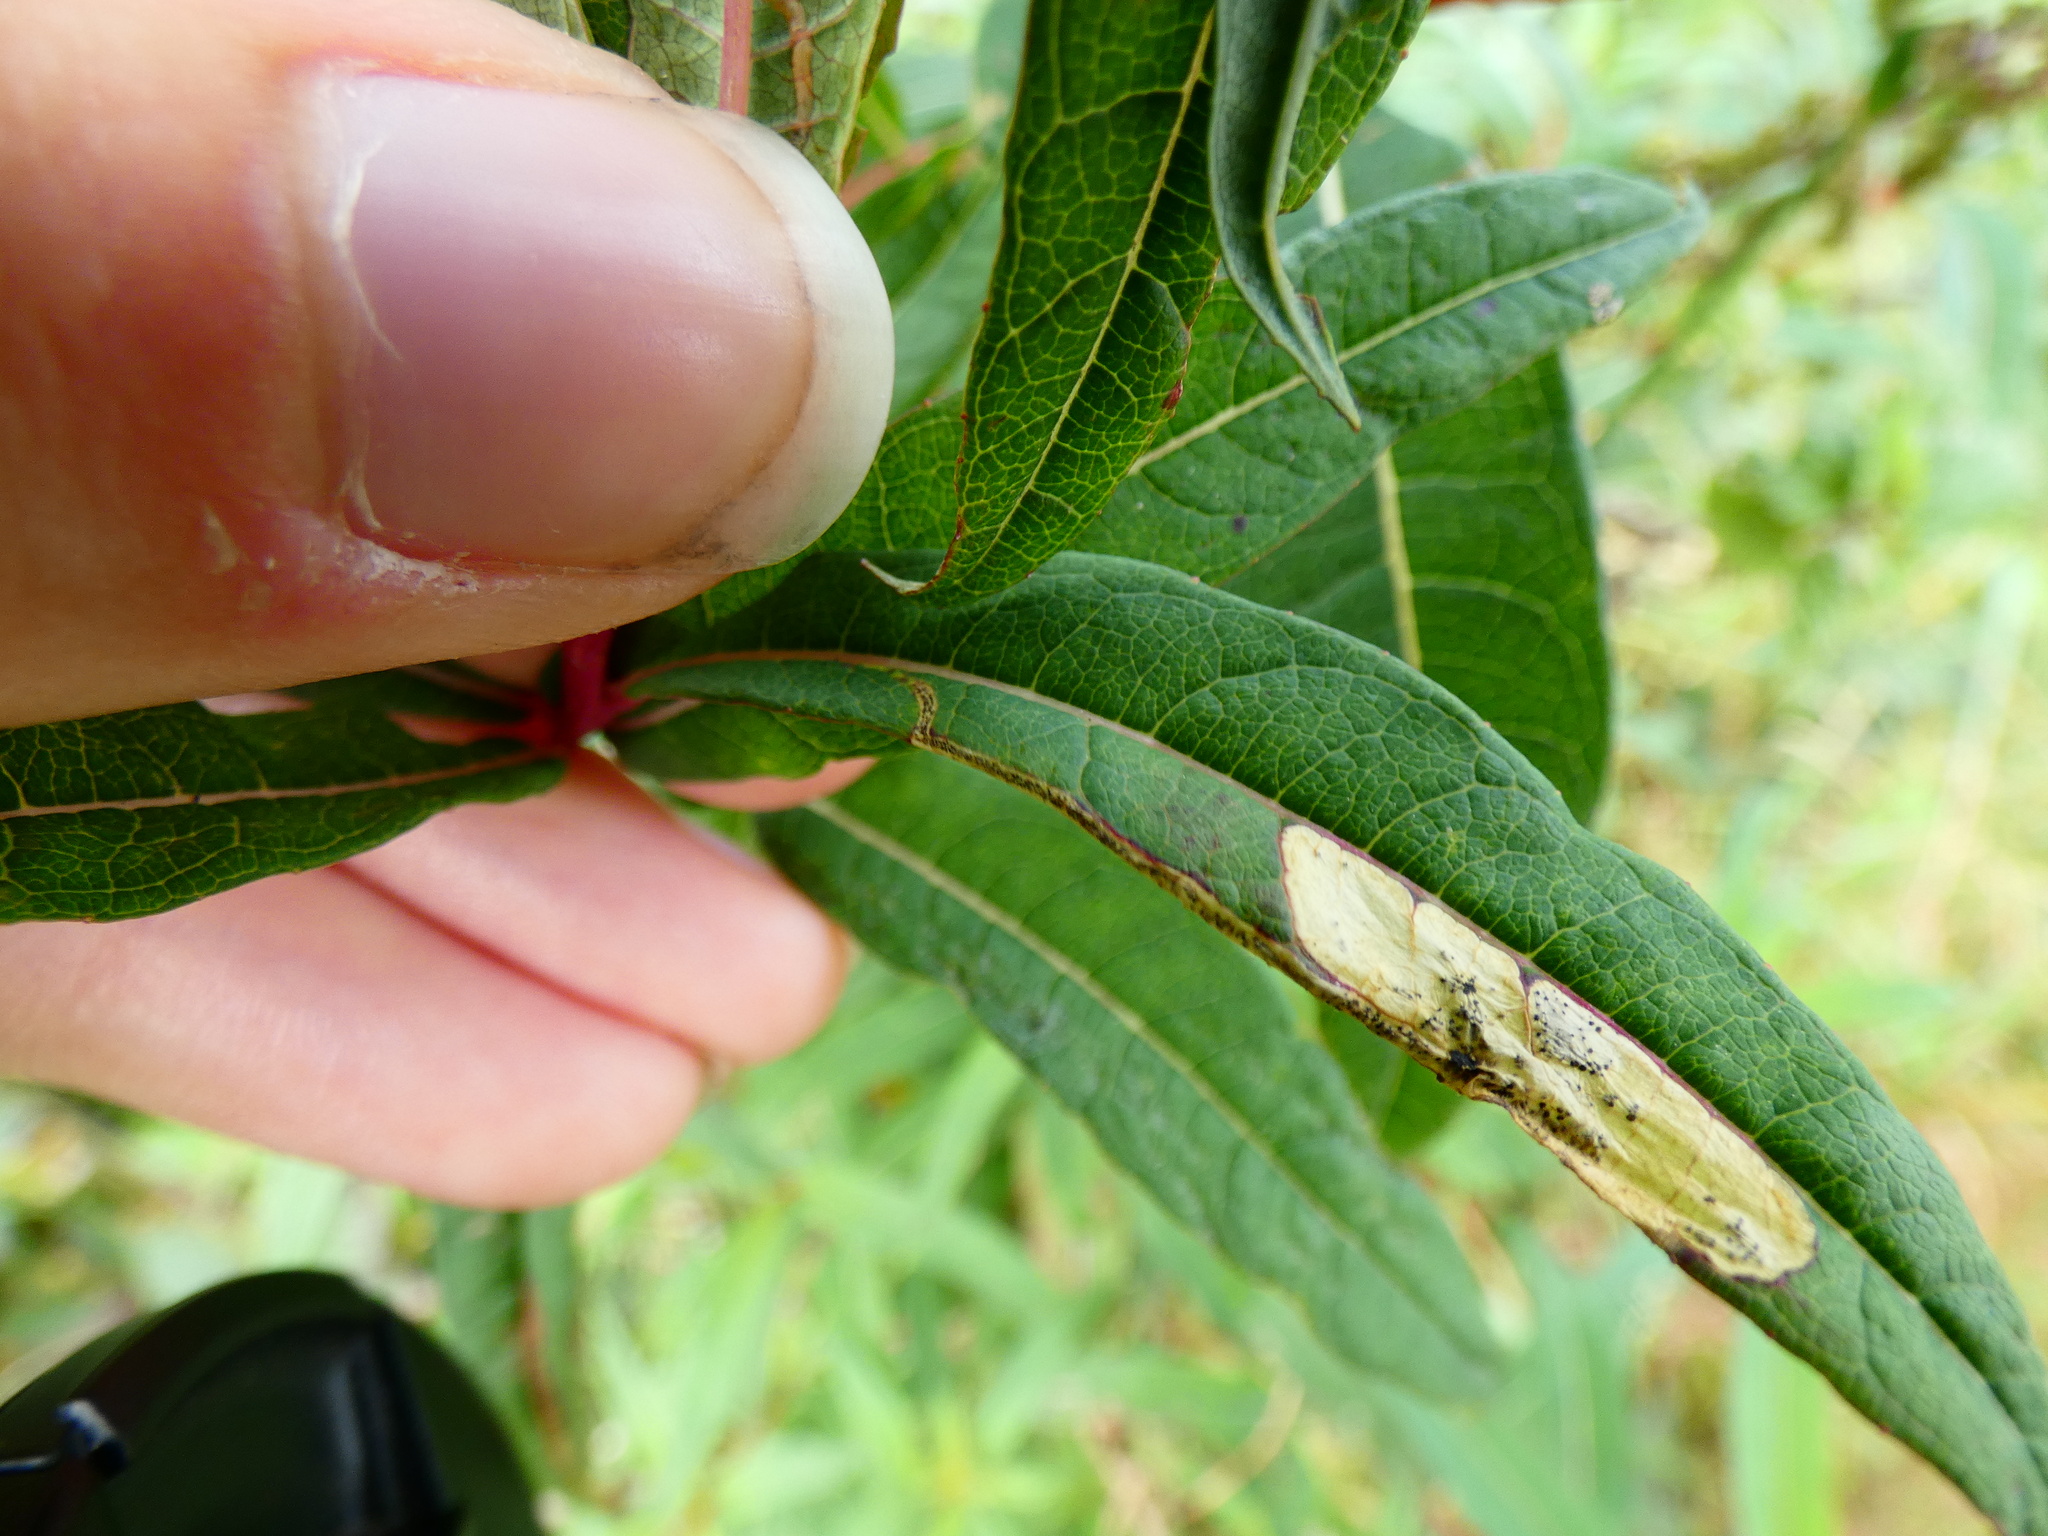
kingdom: Animalia
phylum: Arthropoda
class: Insecta
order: Lepidoptera
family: Momphidae
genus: Mompha
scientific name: Mompha raschkiella
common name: Little cosmet
